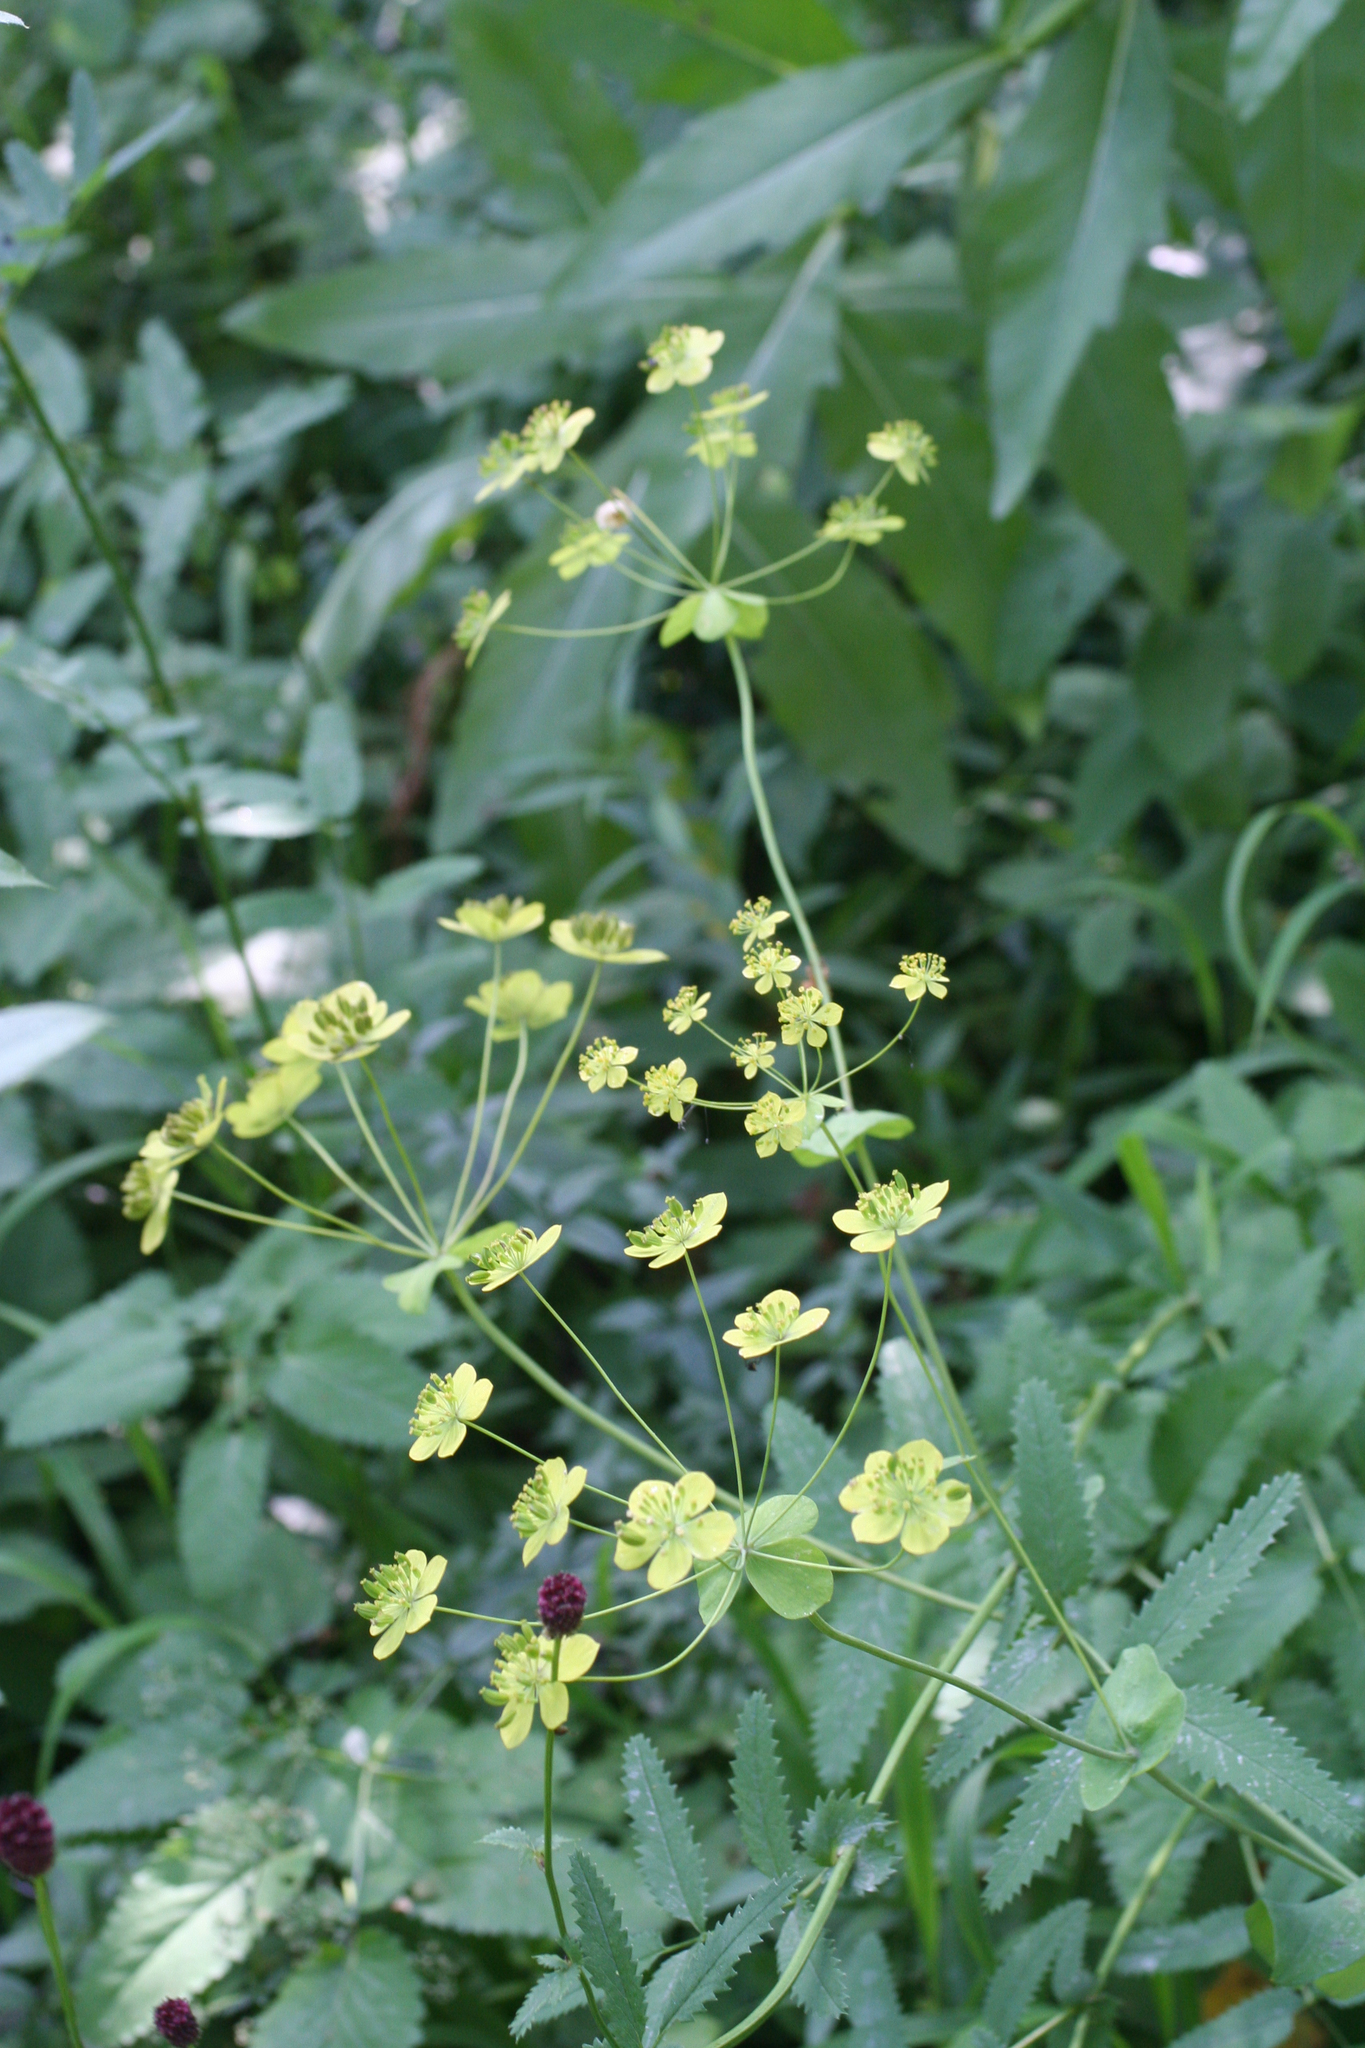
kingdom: Plantae
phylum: Tracheophyta
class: Magnoliopsida
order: Apiales
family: Apiaceae
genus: Bupleurum
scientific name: Bupleurum aureum
